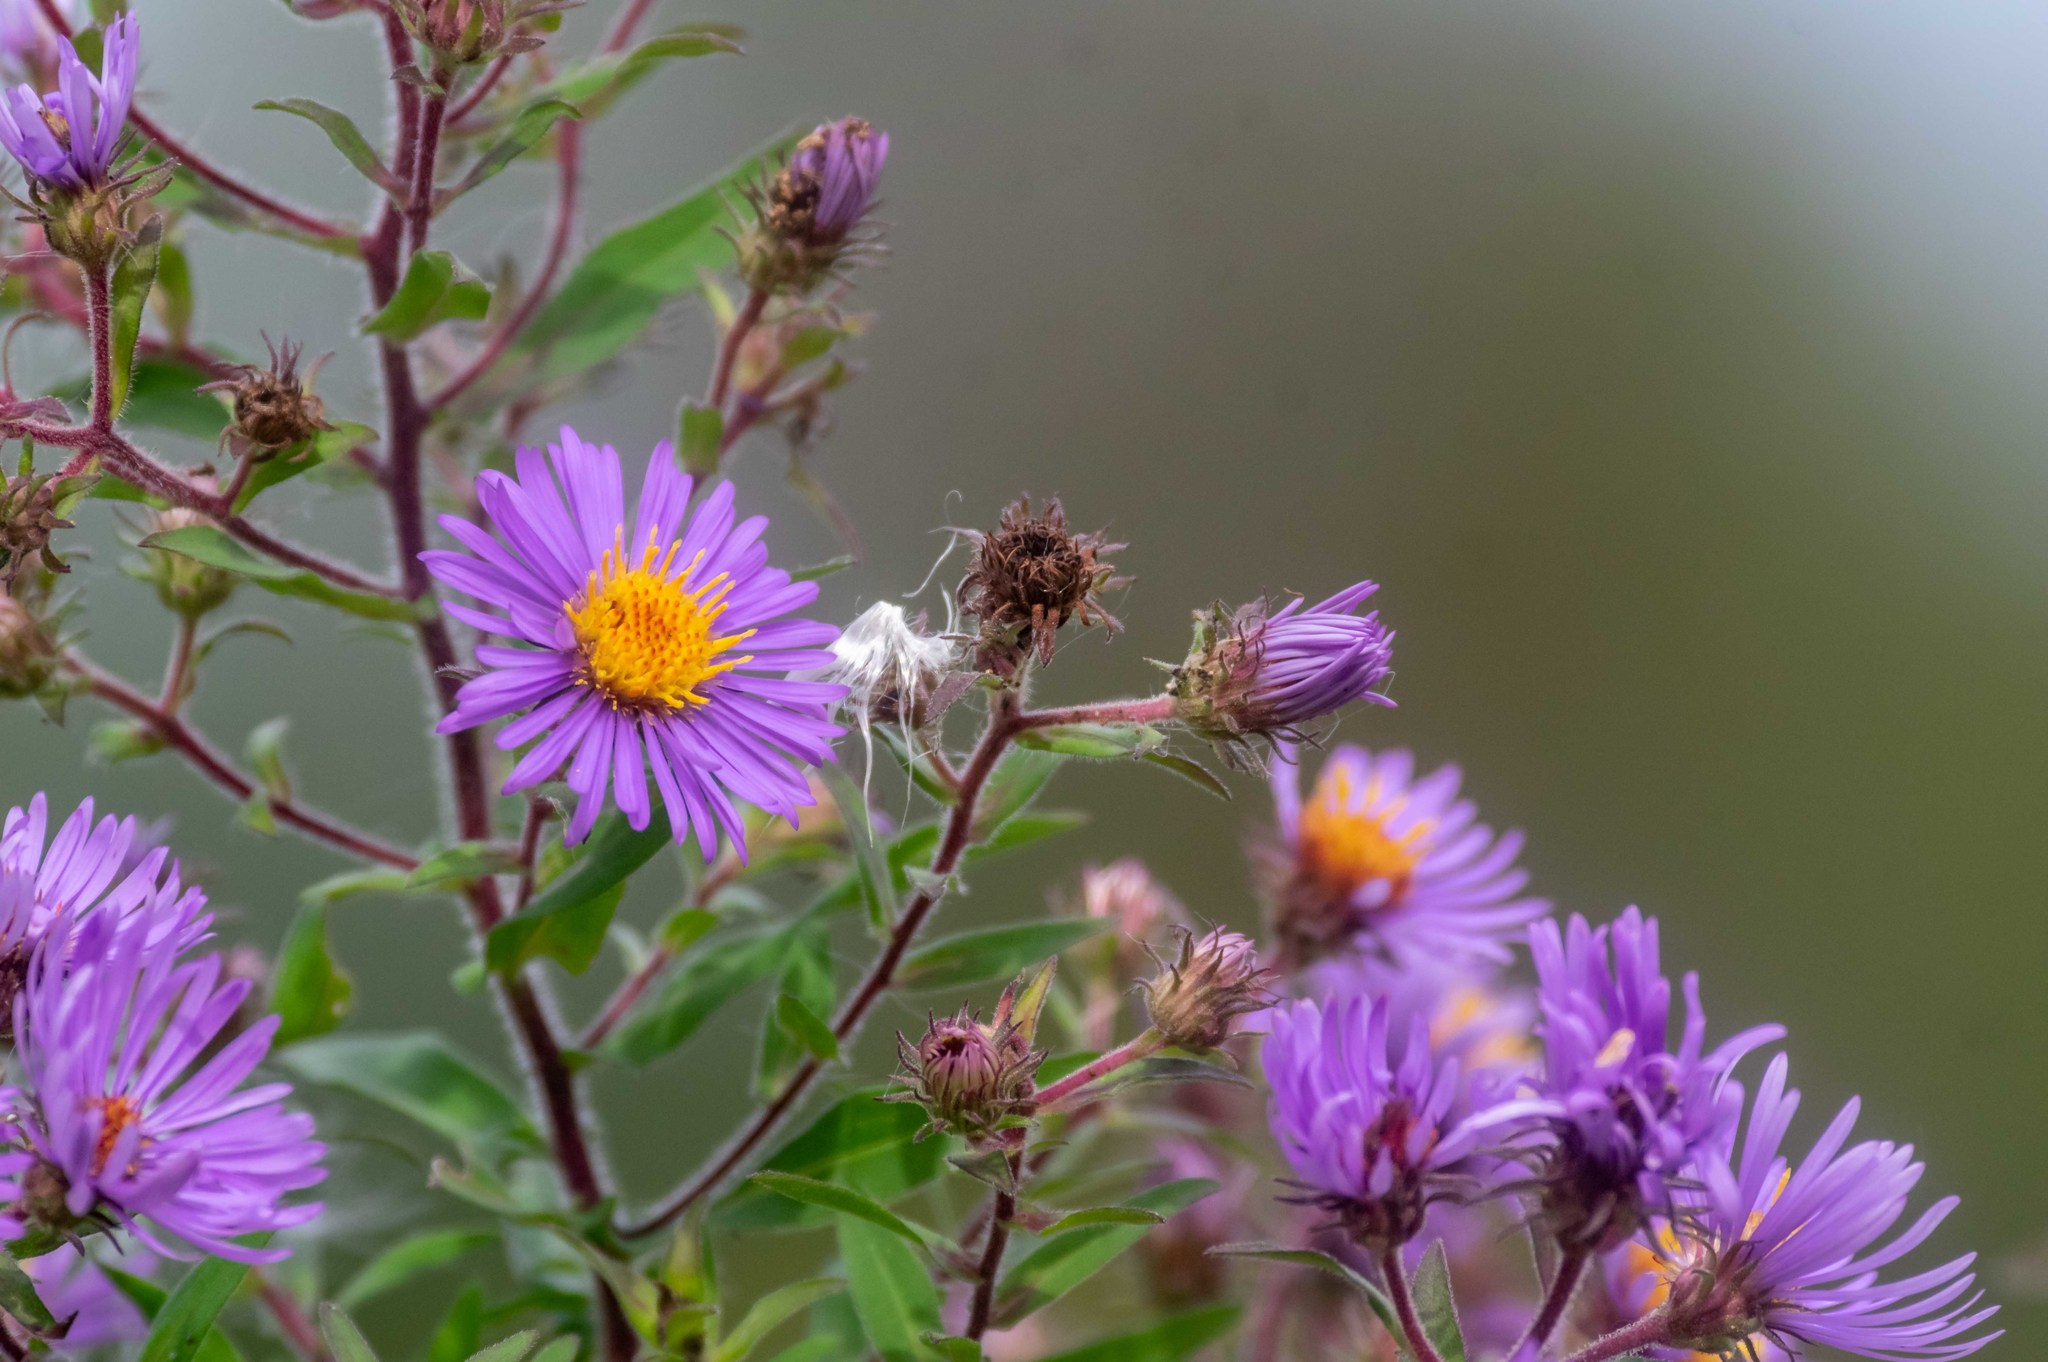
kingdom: Plantae
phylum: Tracheophyta
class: Magnoliopsida
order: Asterales
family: Asteraceae
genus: Symphyotrichum
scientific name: Symphyotrichum novae-angliae
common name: Michaelmas daisy
